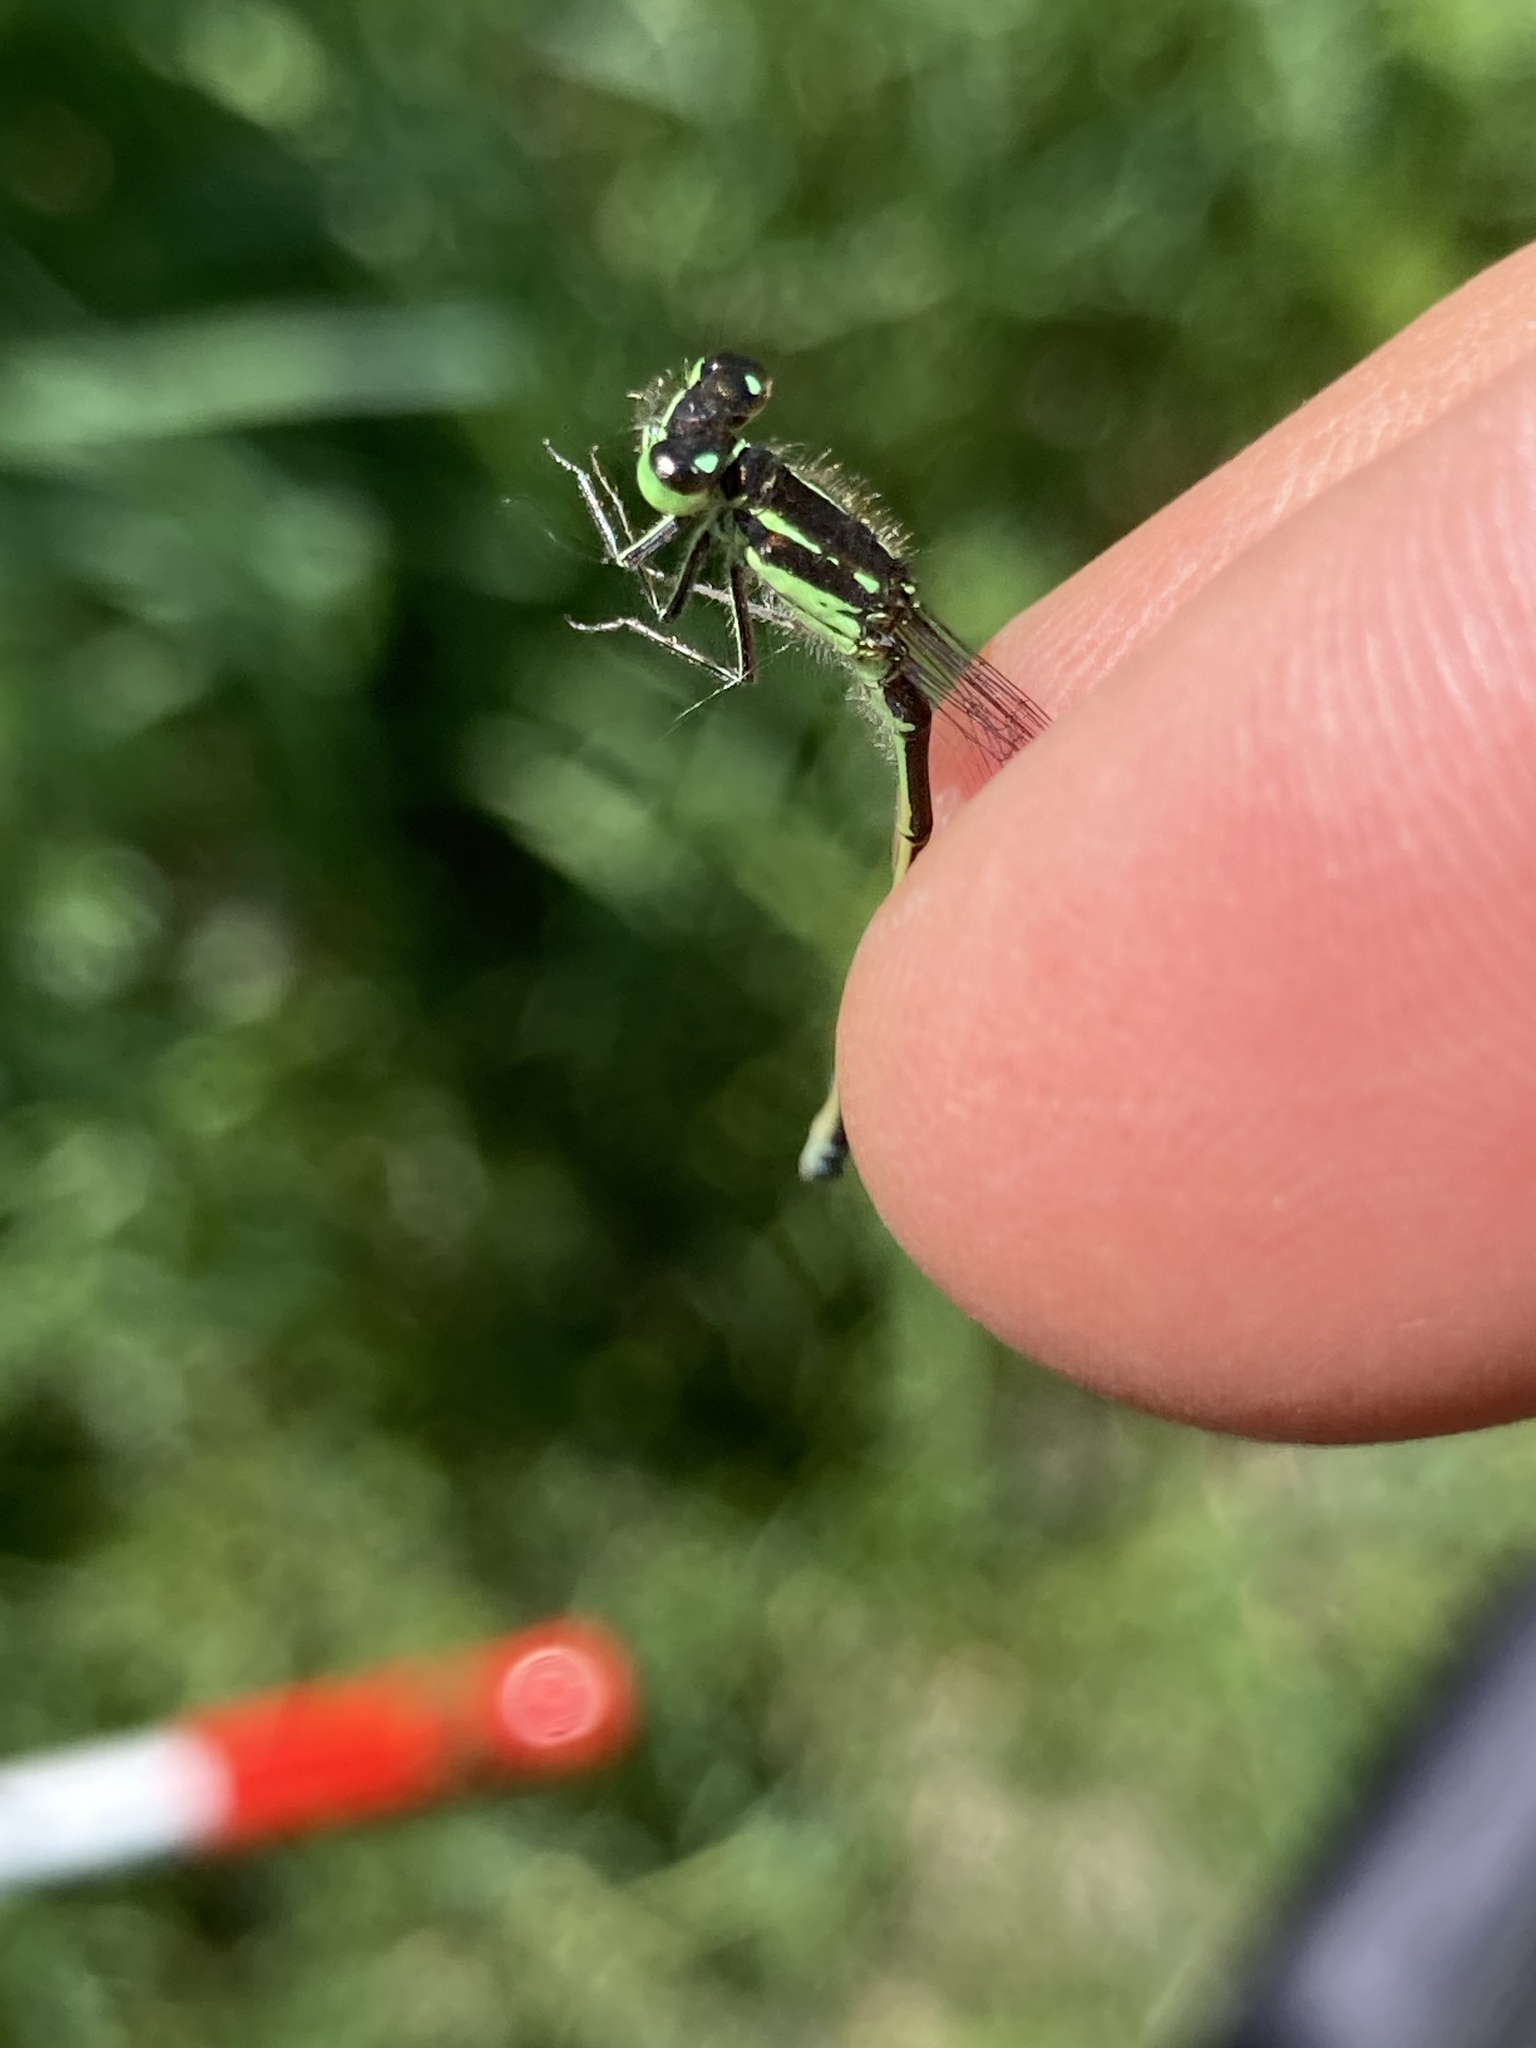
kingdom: Animalia
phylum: Arthropoda
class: Insecta
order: Odonata
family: Coenagrionidae
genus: Ischnura
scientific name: Ischnura verticalis
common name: Eastern forktail
